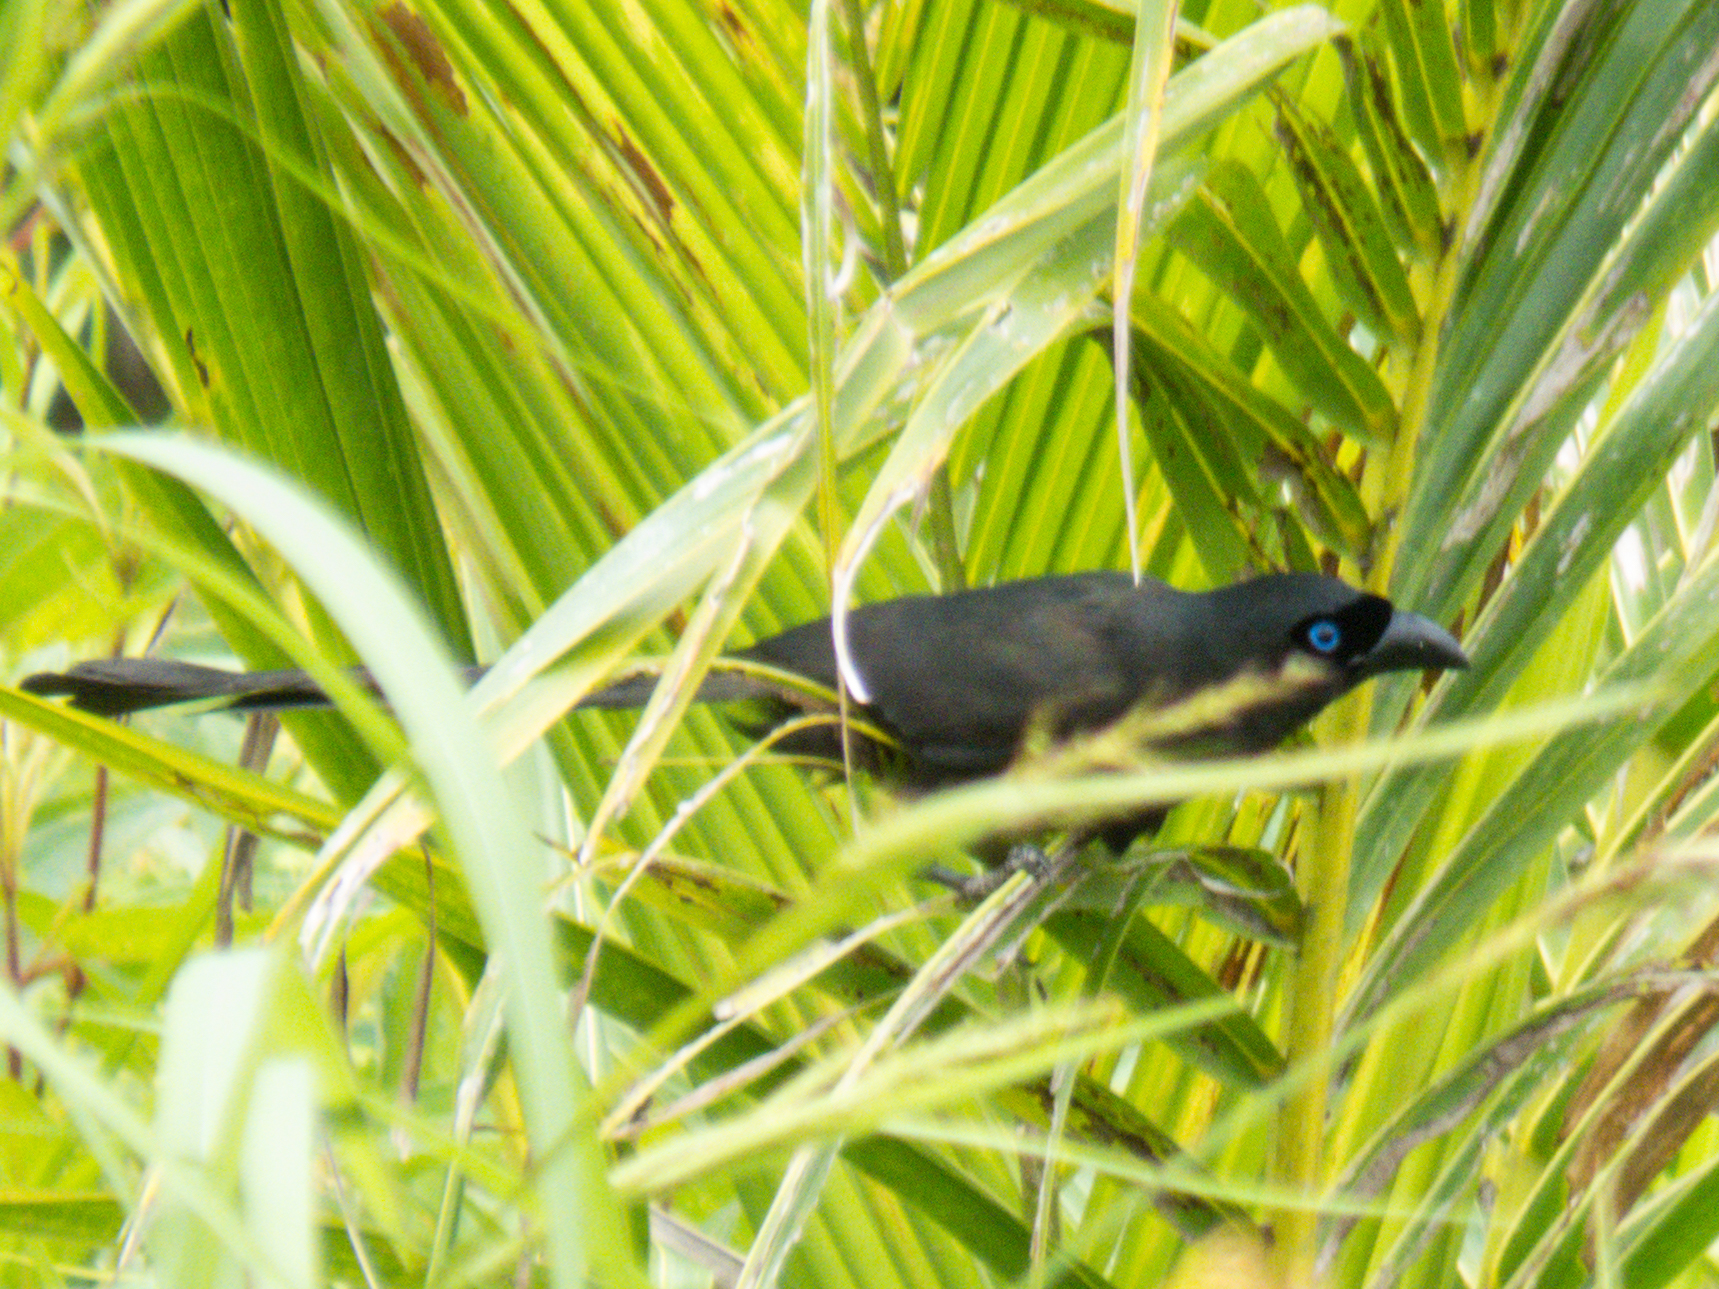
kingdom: Animalia
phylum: Chordata
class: Aves
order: Passeriformes
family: Corvidae
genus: Crypsirina
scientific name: Crypsirina temia
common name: Racket-tailed treepie
